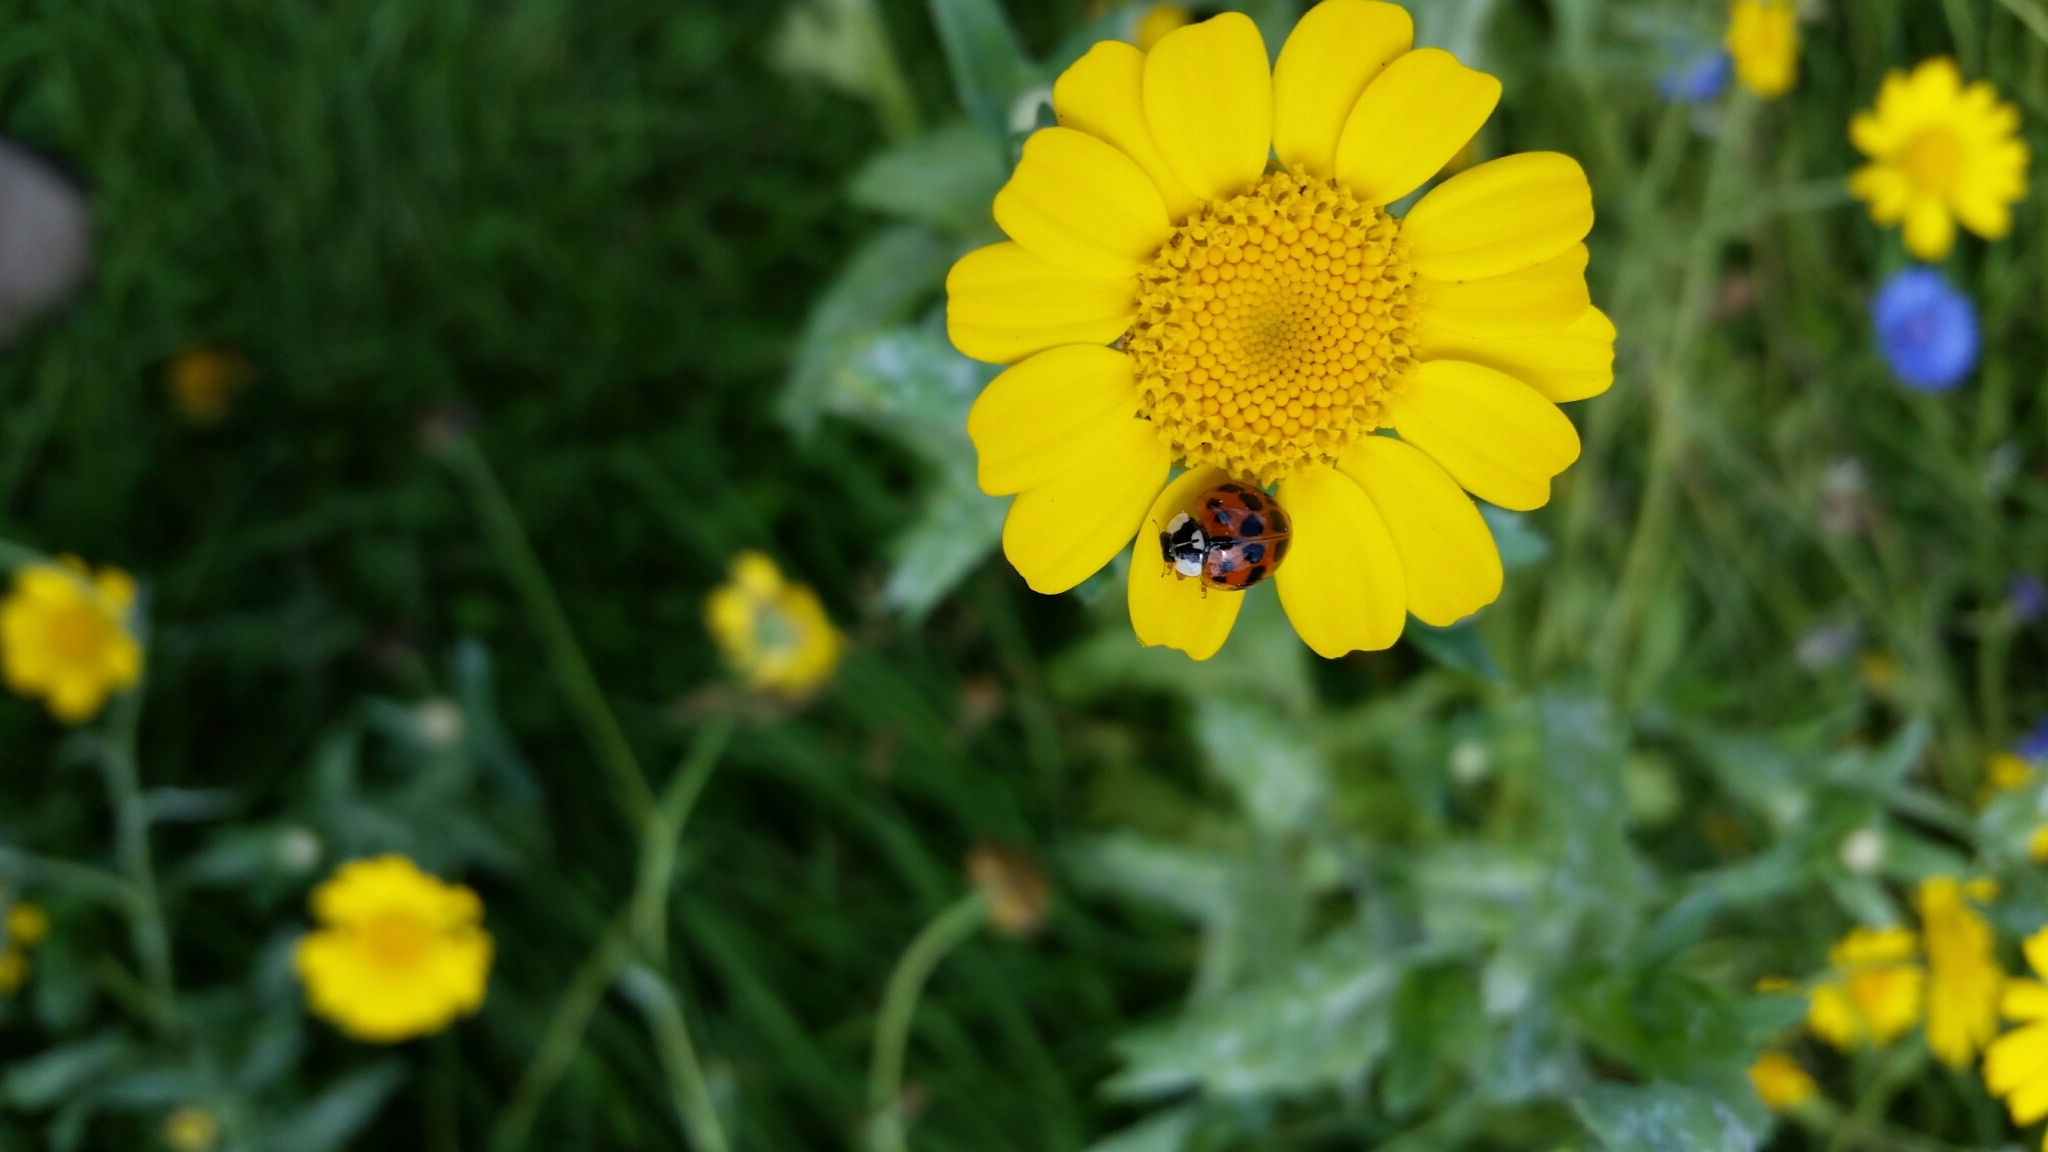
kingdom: Animalia
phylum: Arthropoda
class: Insecta
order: Coleoptera
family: Coccinellidae
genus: Harmonia
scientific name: Harmonia axyridis
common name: Harlequin ladybird
